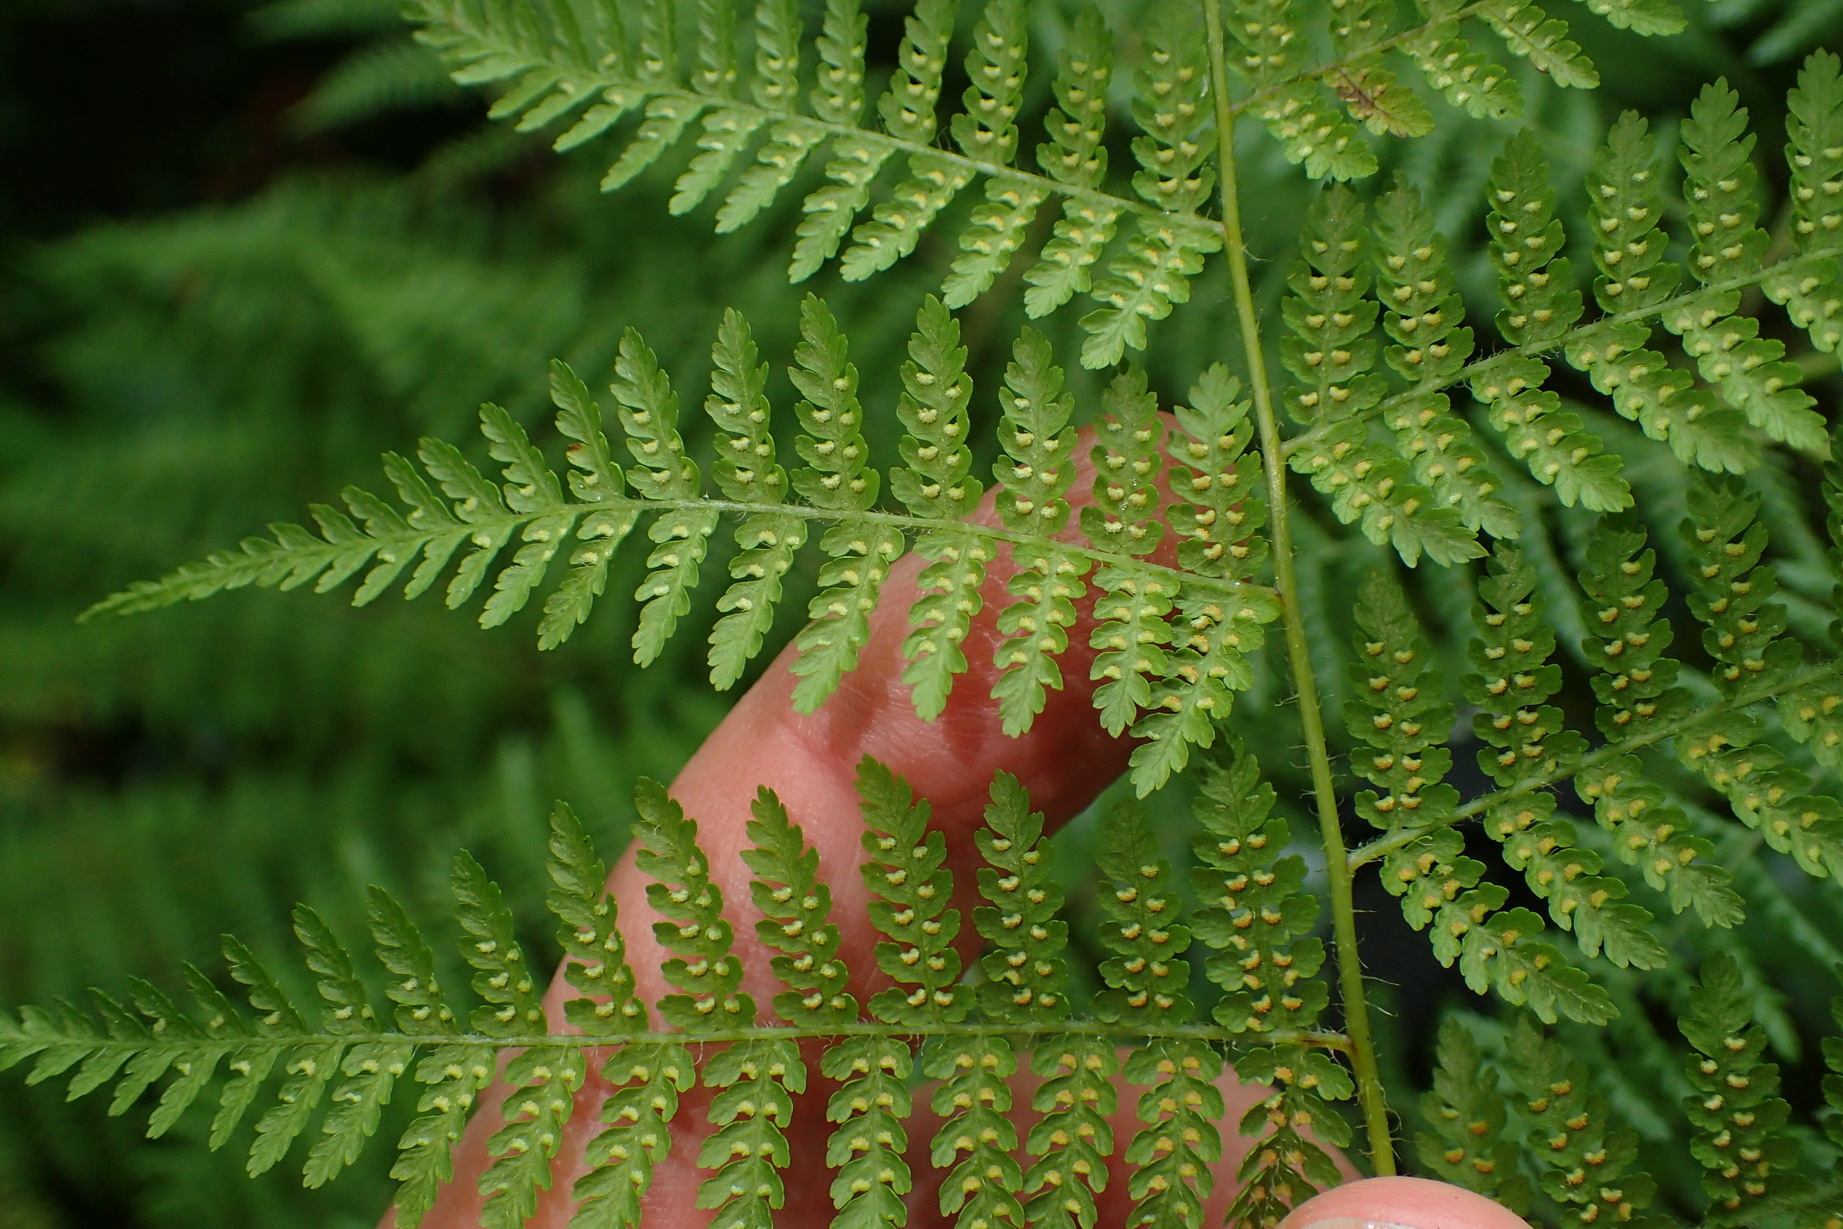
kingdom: Plantae
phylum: Tracheophyta
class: Polypodiopsida
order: Polypodiales
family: Dennstaedtiaceae
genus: Hypolepis
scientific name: Hypolepis sparsisora
